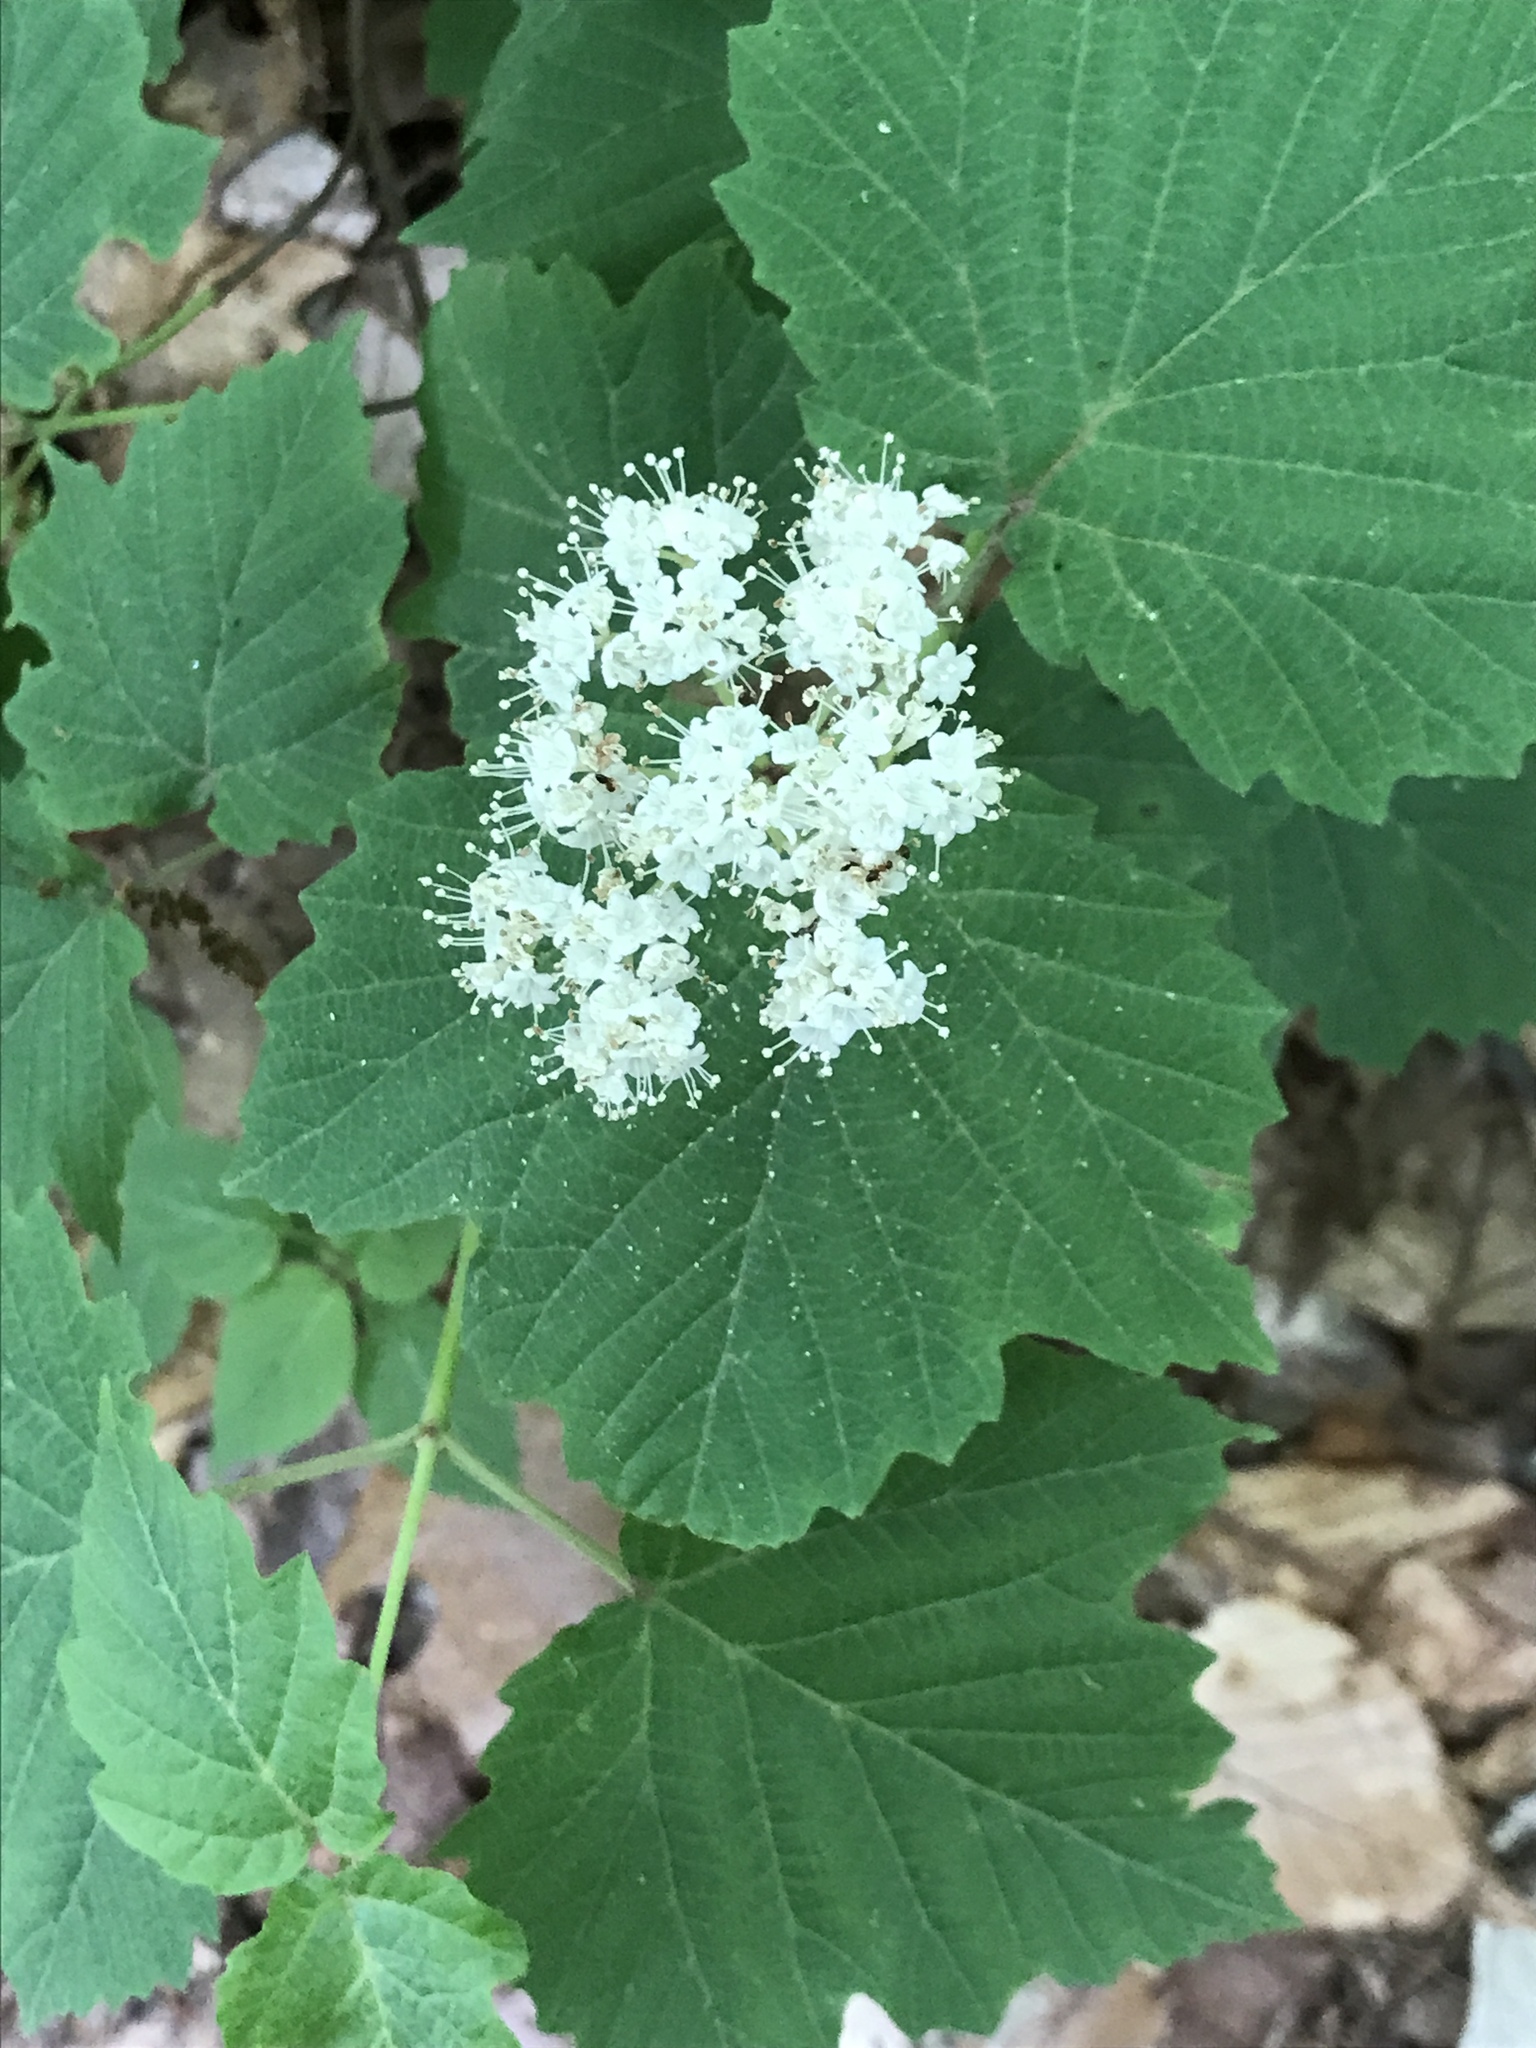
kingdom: Plantae
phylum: Tracheophyta
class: Magnoliopsida
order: Dipsacales
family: Viburnaceae
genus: Viburnum
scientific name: Viburnum acerifolium
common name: Dockmackie
